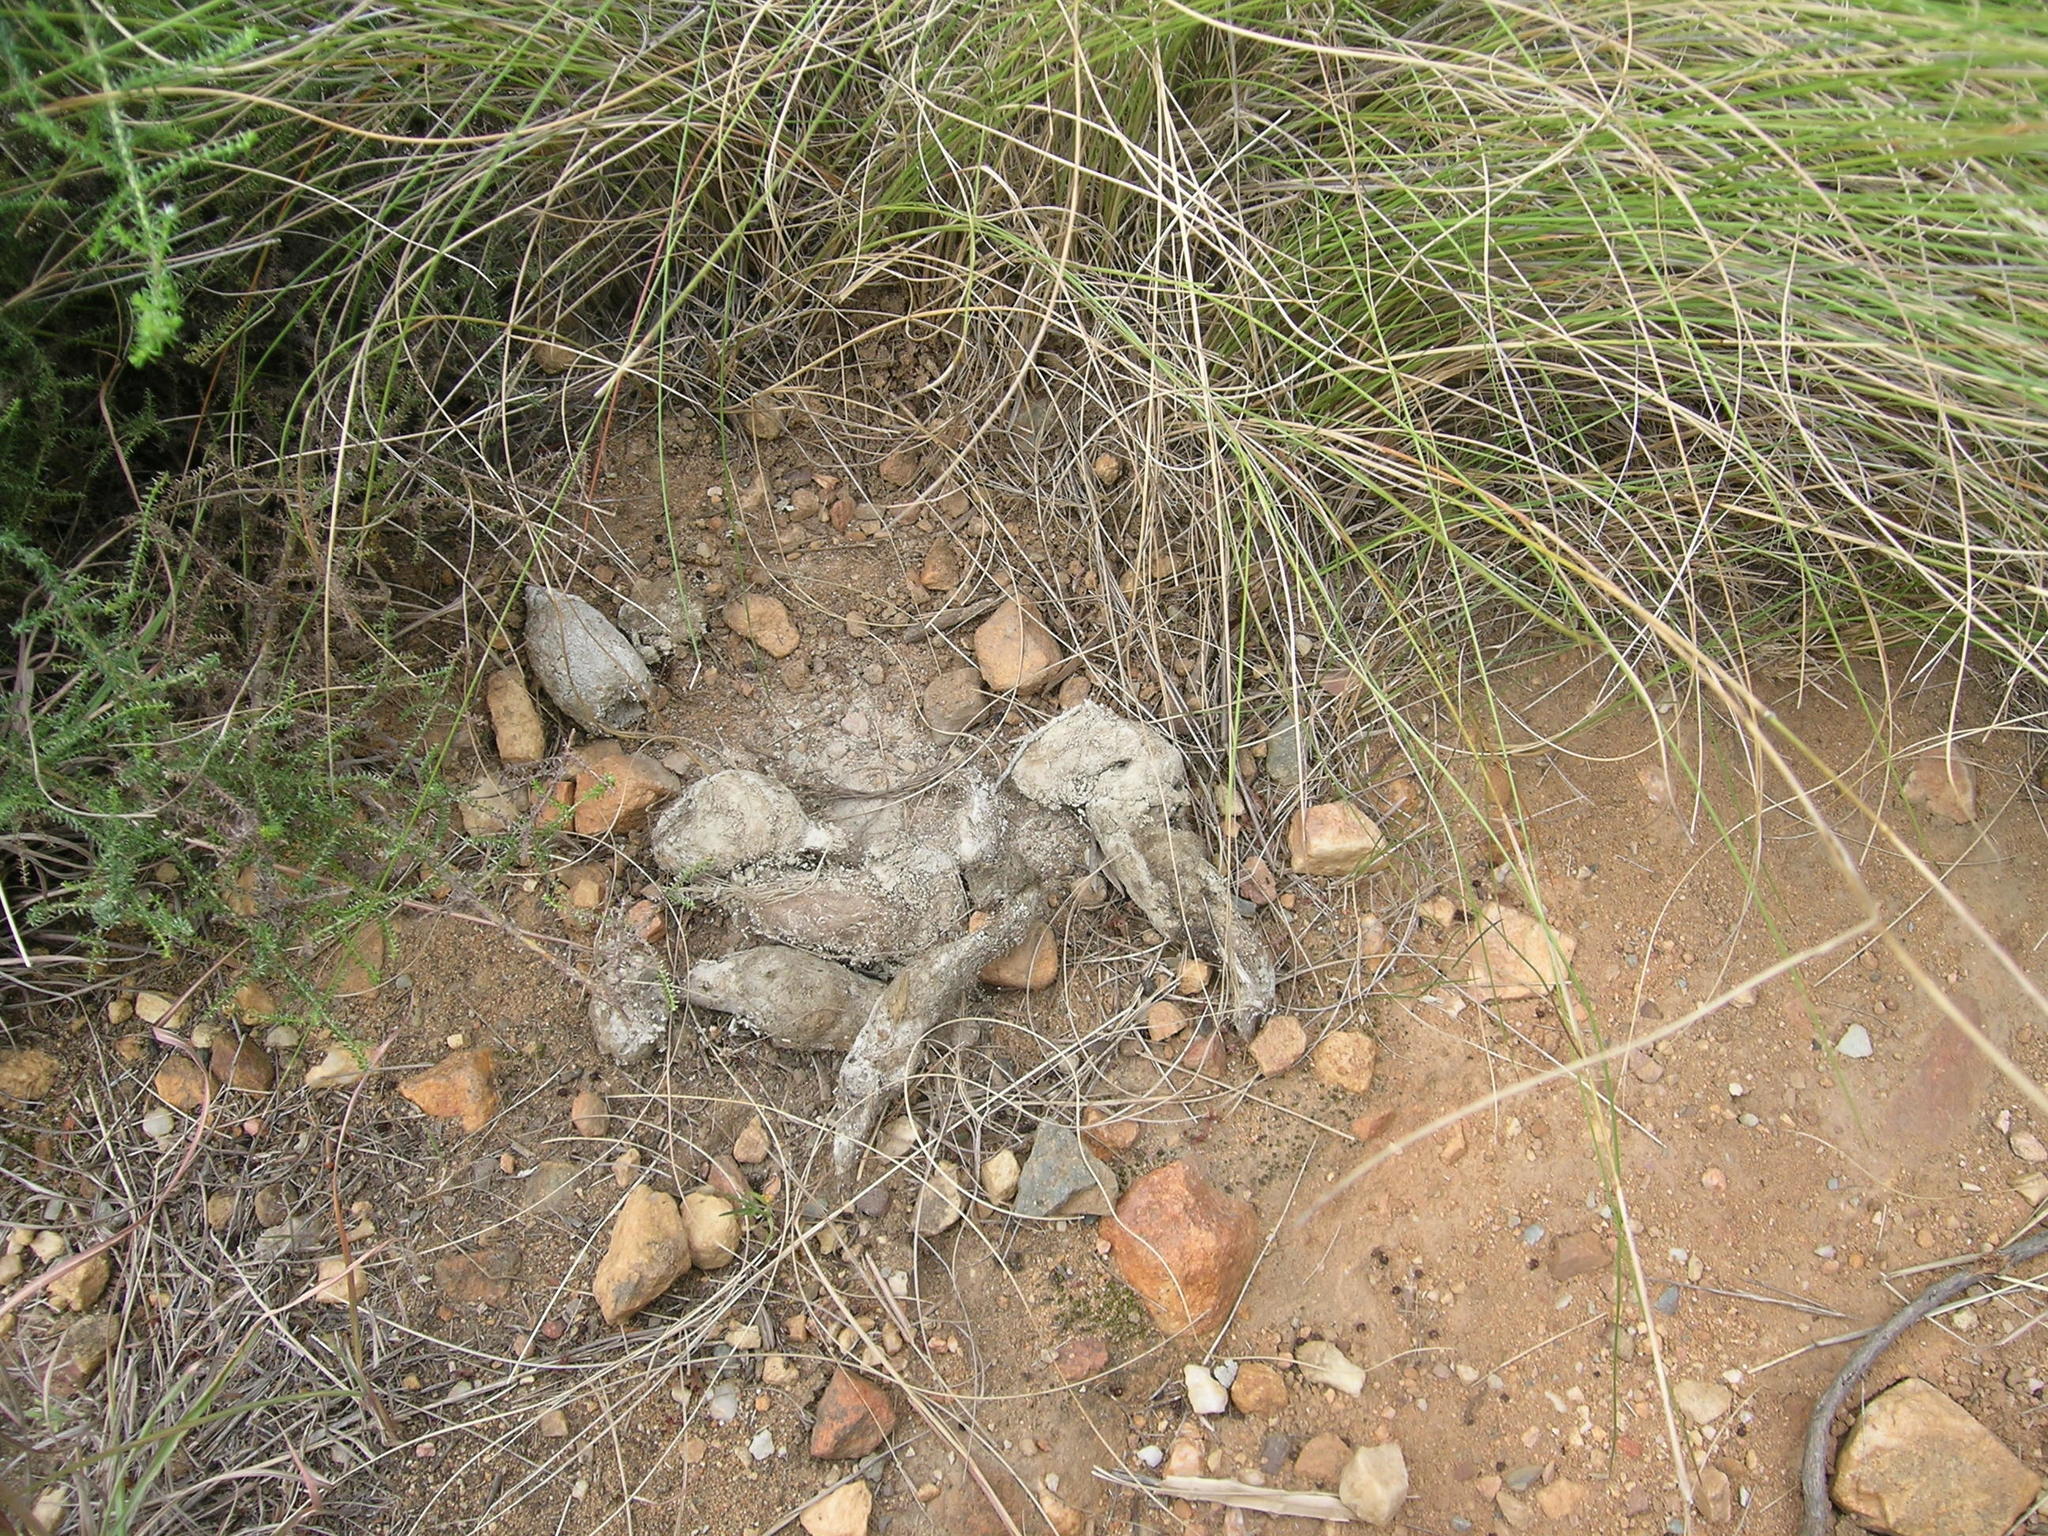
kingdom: Animalia
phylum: Chordata
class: Mammalia
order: Carnivora
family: Felidae
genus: Panthera
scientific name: Panthera pardus
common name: Leopard
